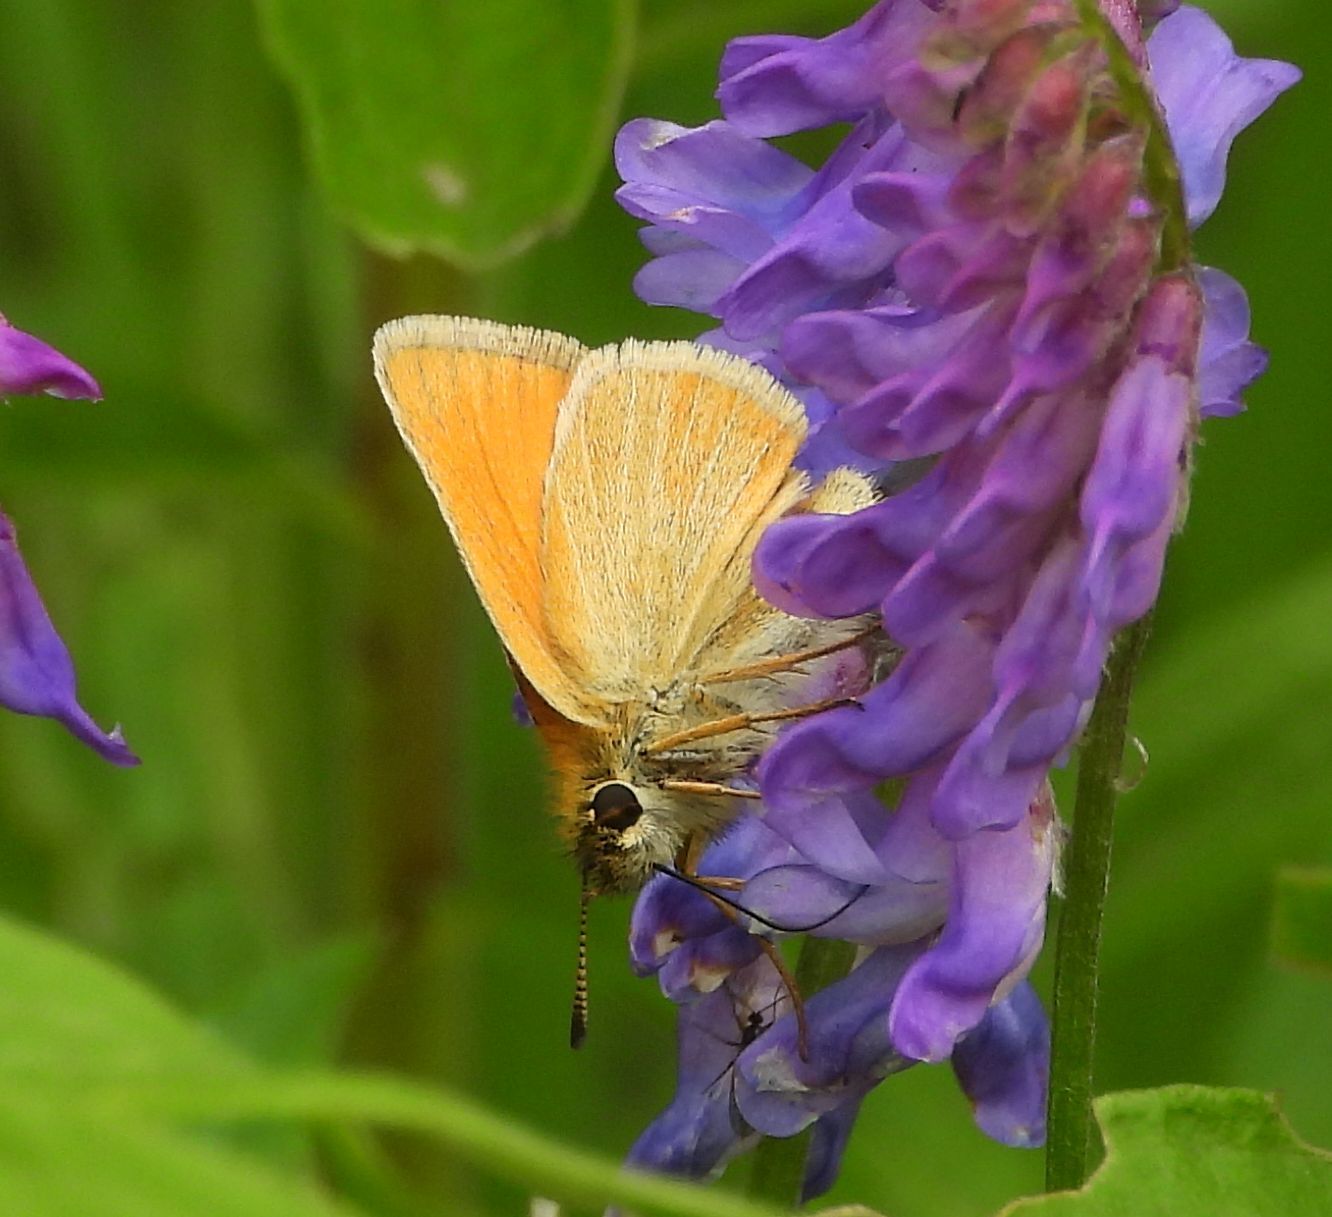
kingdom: Animalia
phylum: Arthropoda
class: Insecta
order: Lepidoptera
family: Hesperiidae
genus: Thymelicus
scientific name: Thymelicus lineola
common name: Essex skipper
